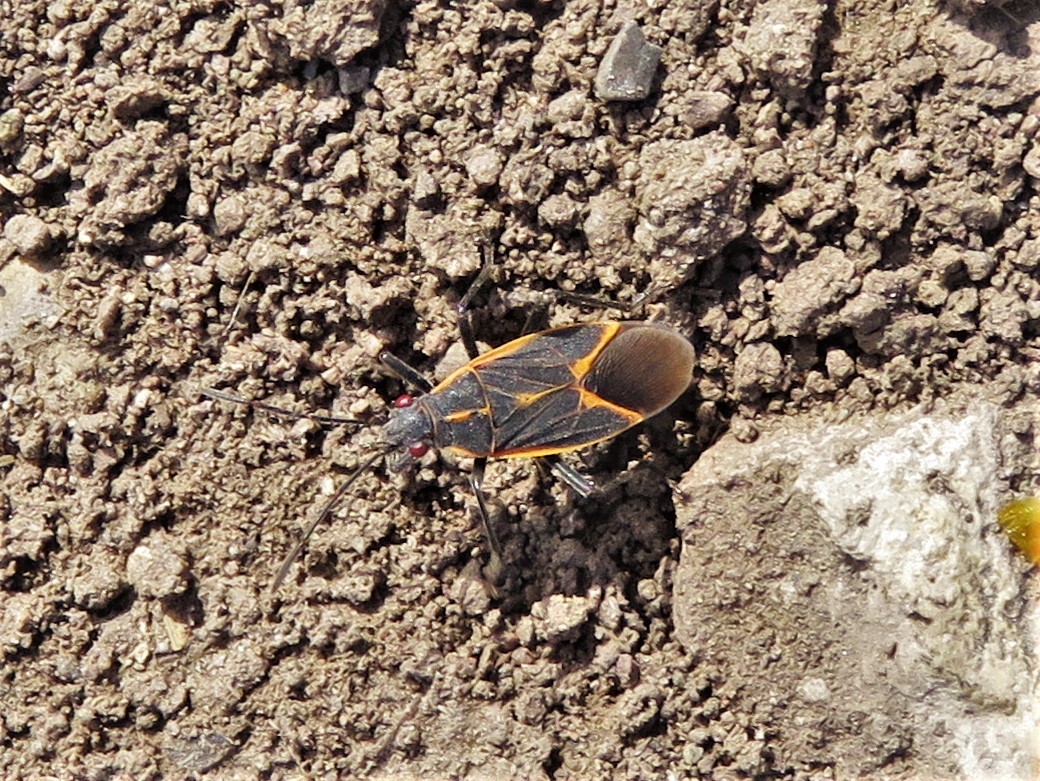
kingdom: Animalia
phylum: Arthropoda
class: Insecta
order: Hemiptera
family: Rhopalidae
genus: Boisea
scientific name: Boisea trivittata
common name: Boxelder bug
